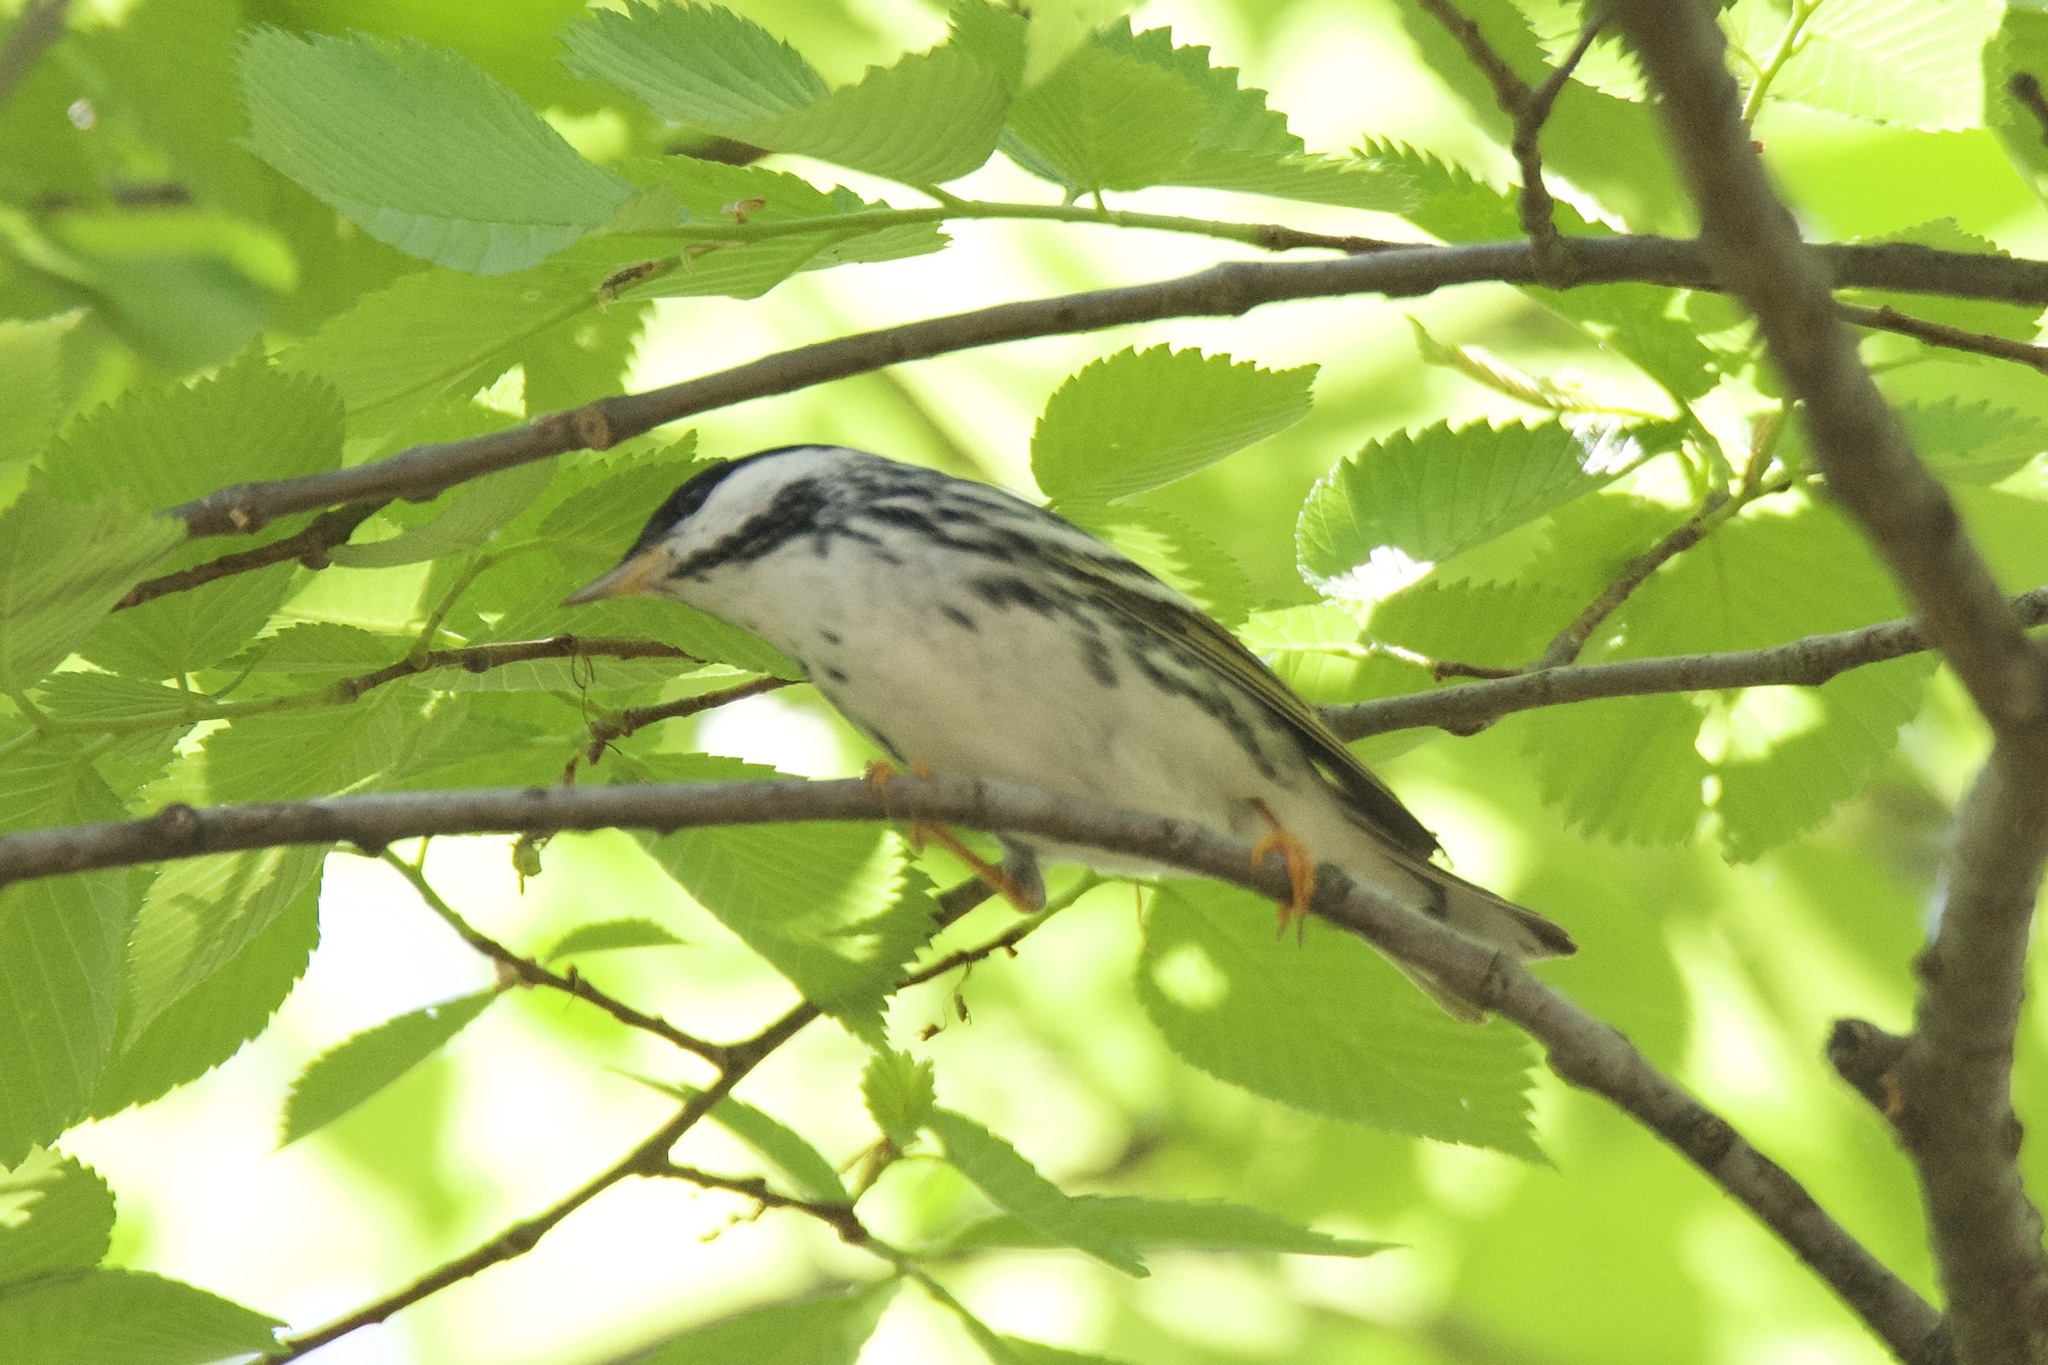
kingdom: Animalia
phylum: Chordata
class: Aves
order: Passeriformes
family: Parulidae
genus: Setophaga
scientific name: Setophaga striata
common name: Blackpoll warbler
